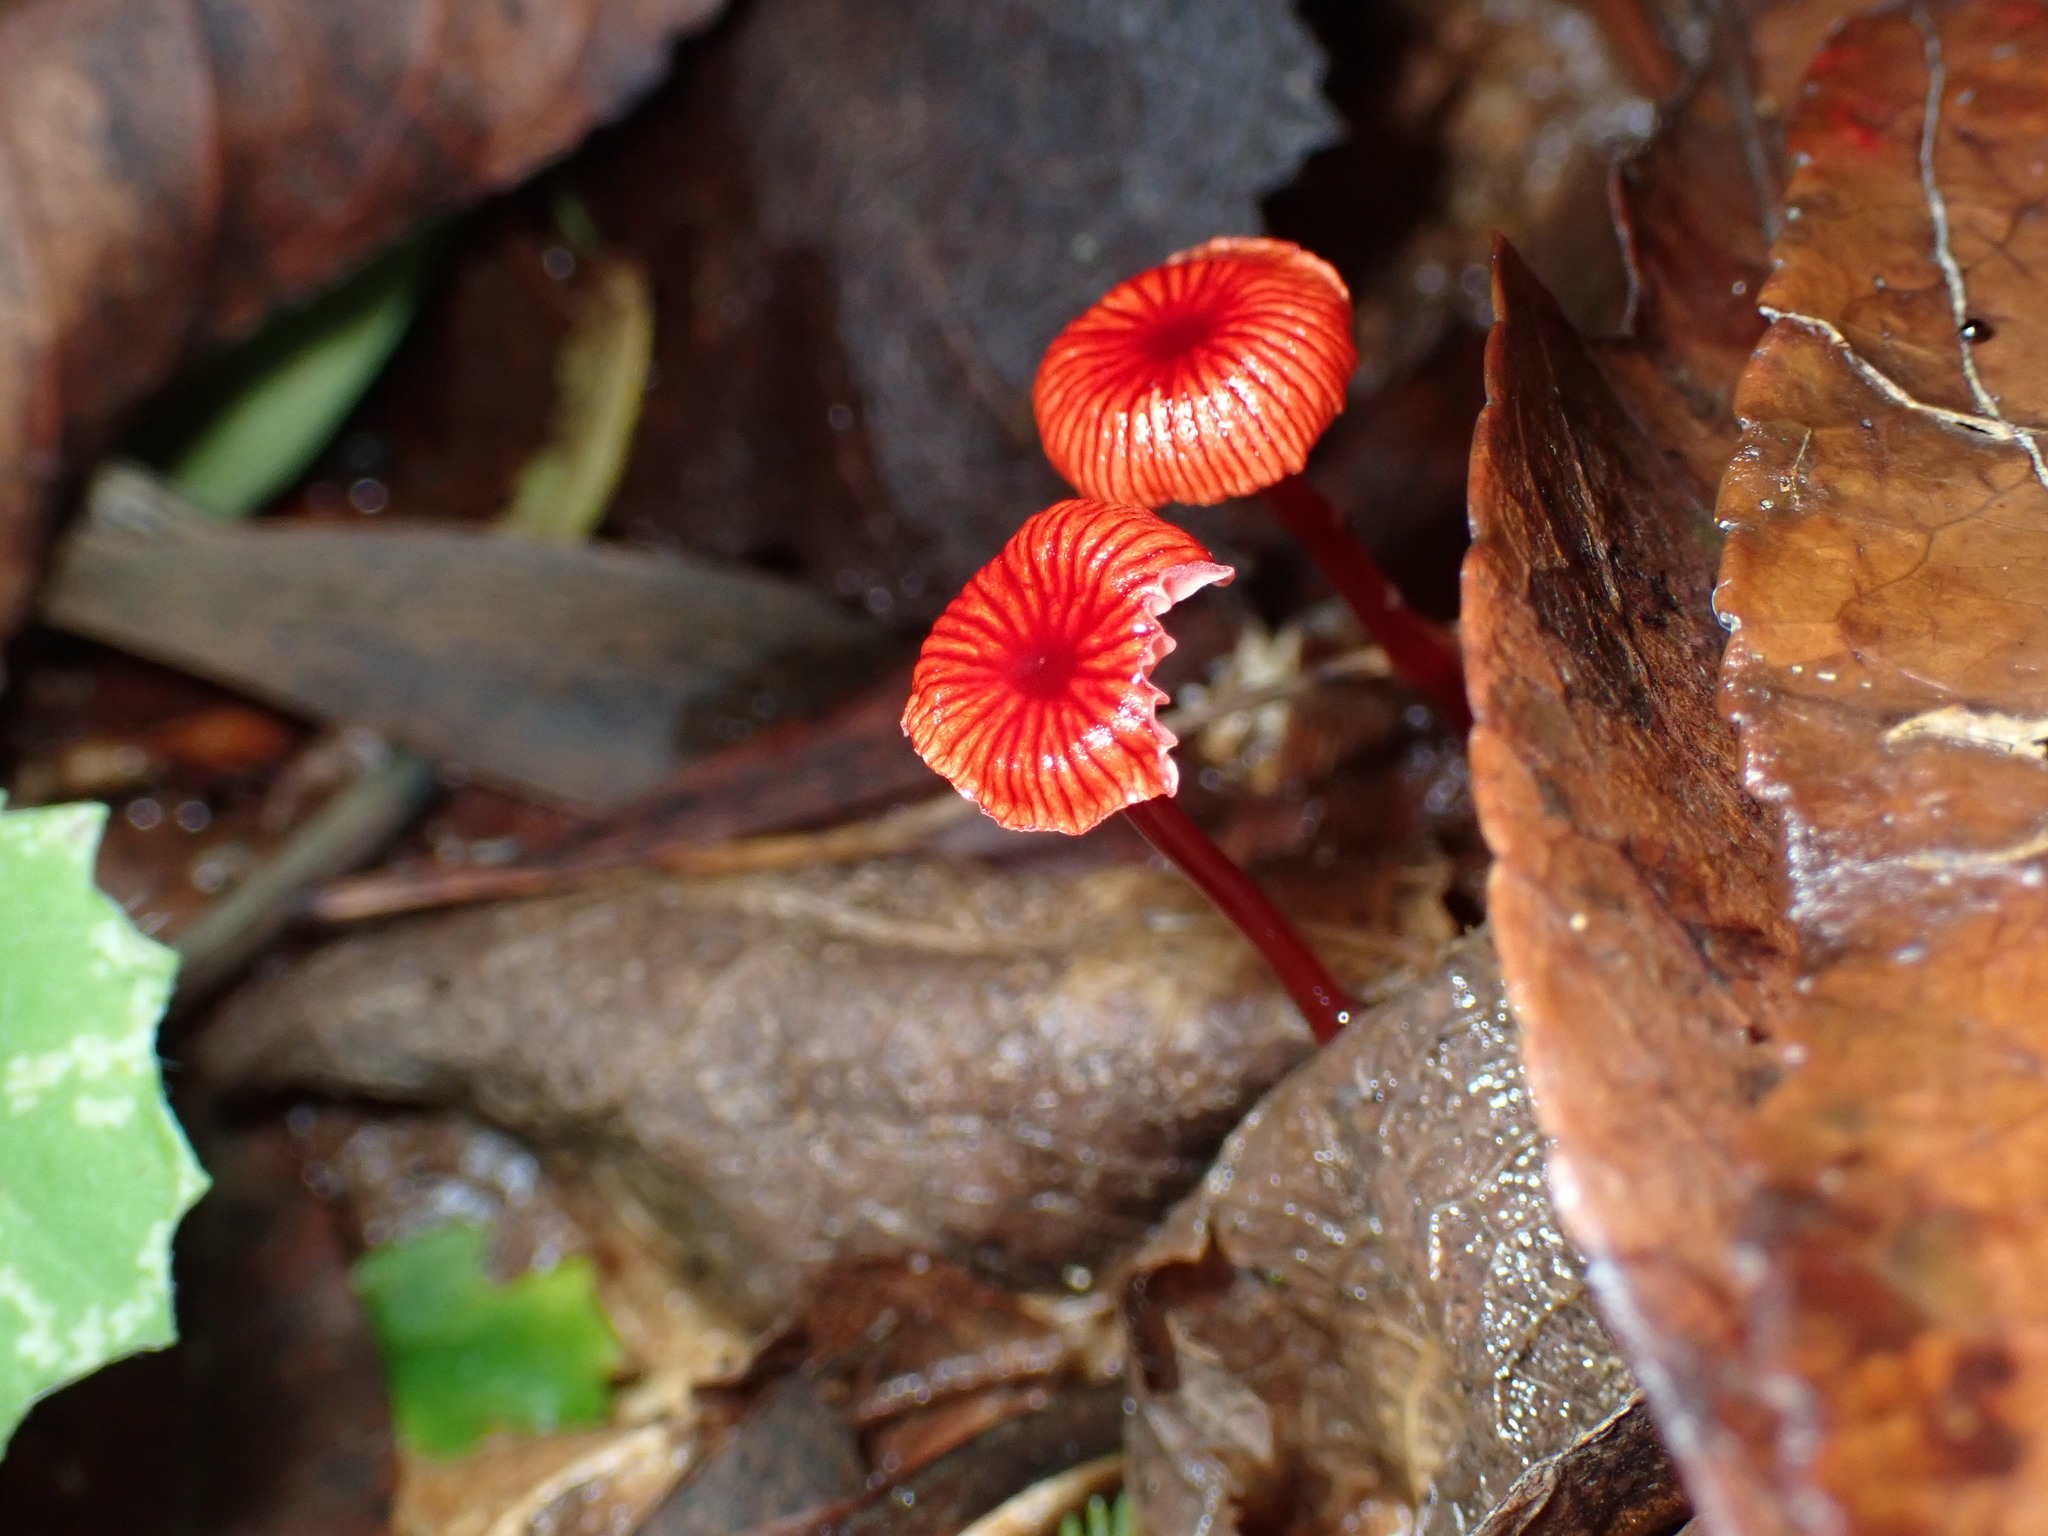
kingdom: Fungi
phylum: Basidiomycota
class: Agaricomycetes
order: Agaricales
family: Mycenaceae
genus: Cruentomycena
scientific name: Cruentomycena viscidocruenta
